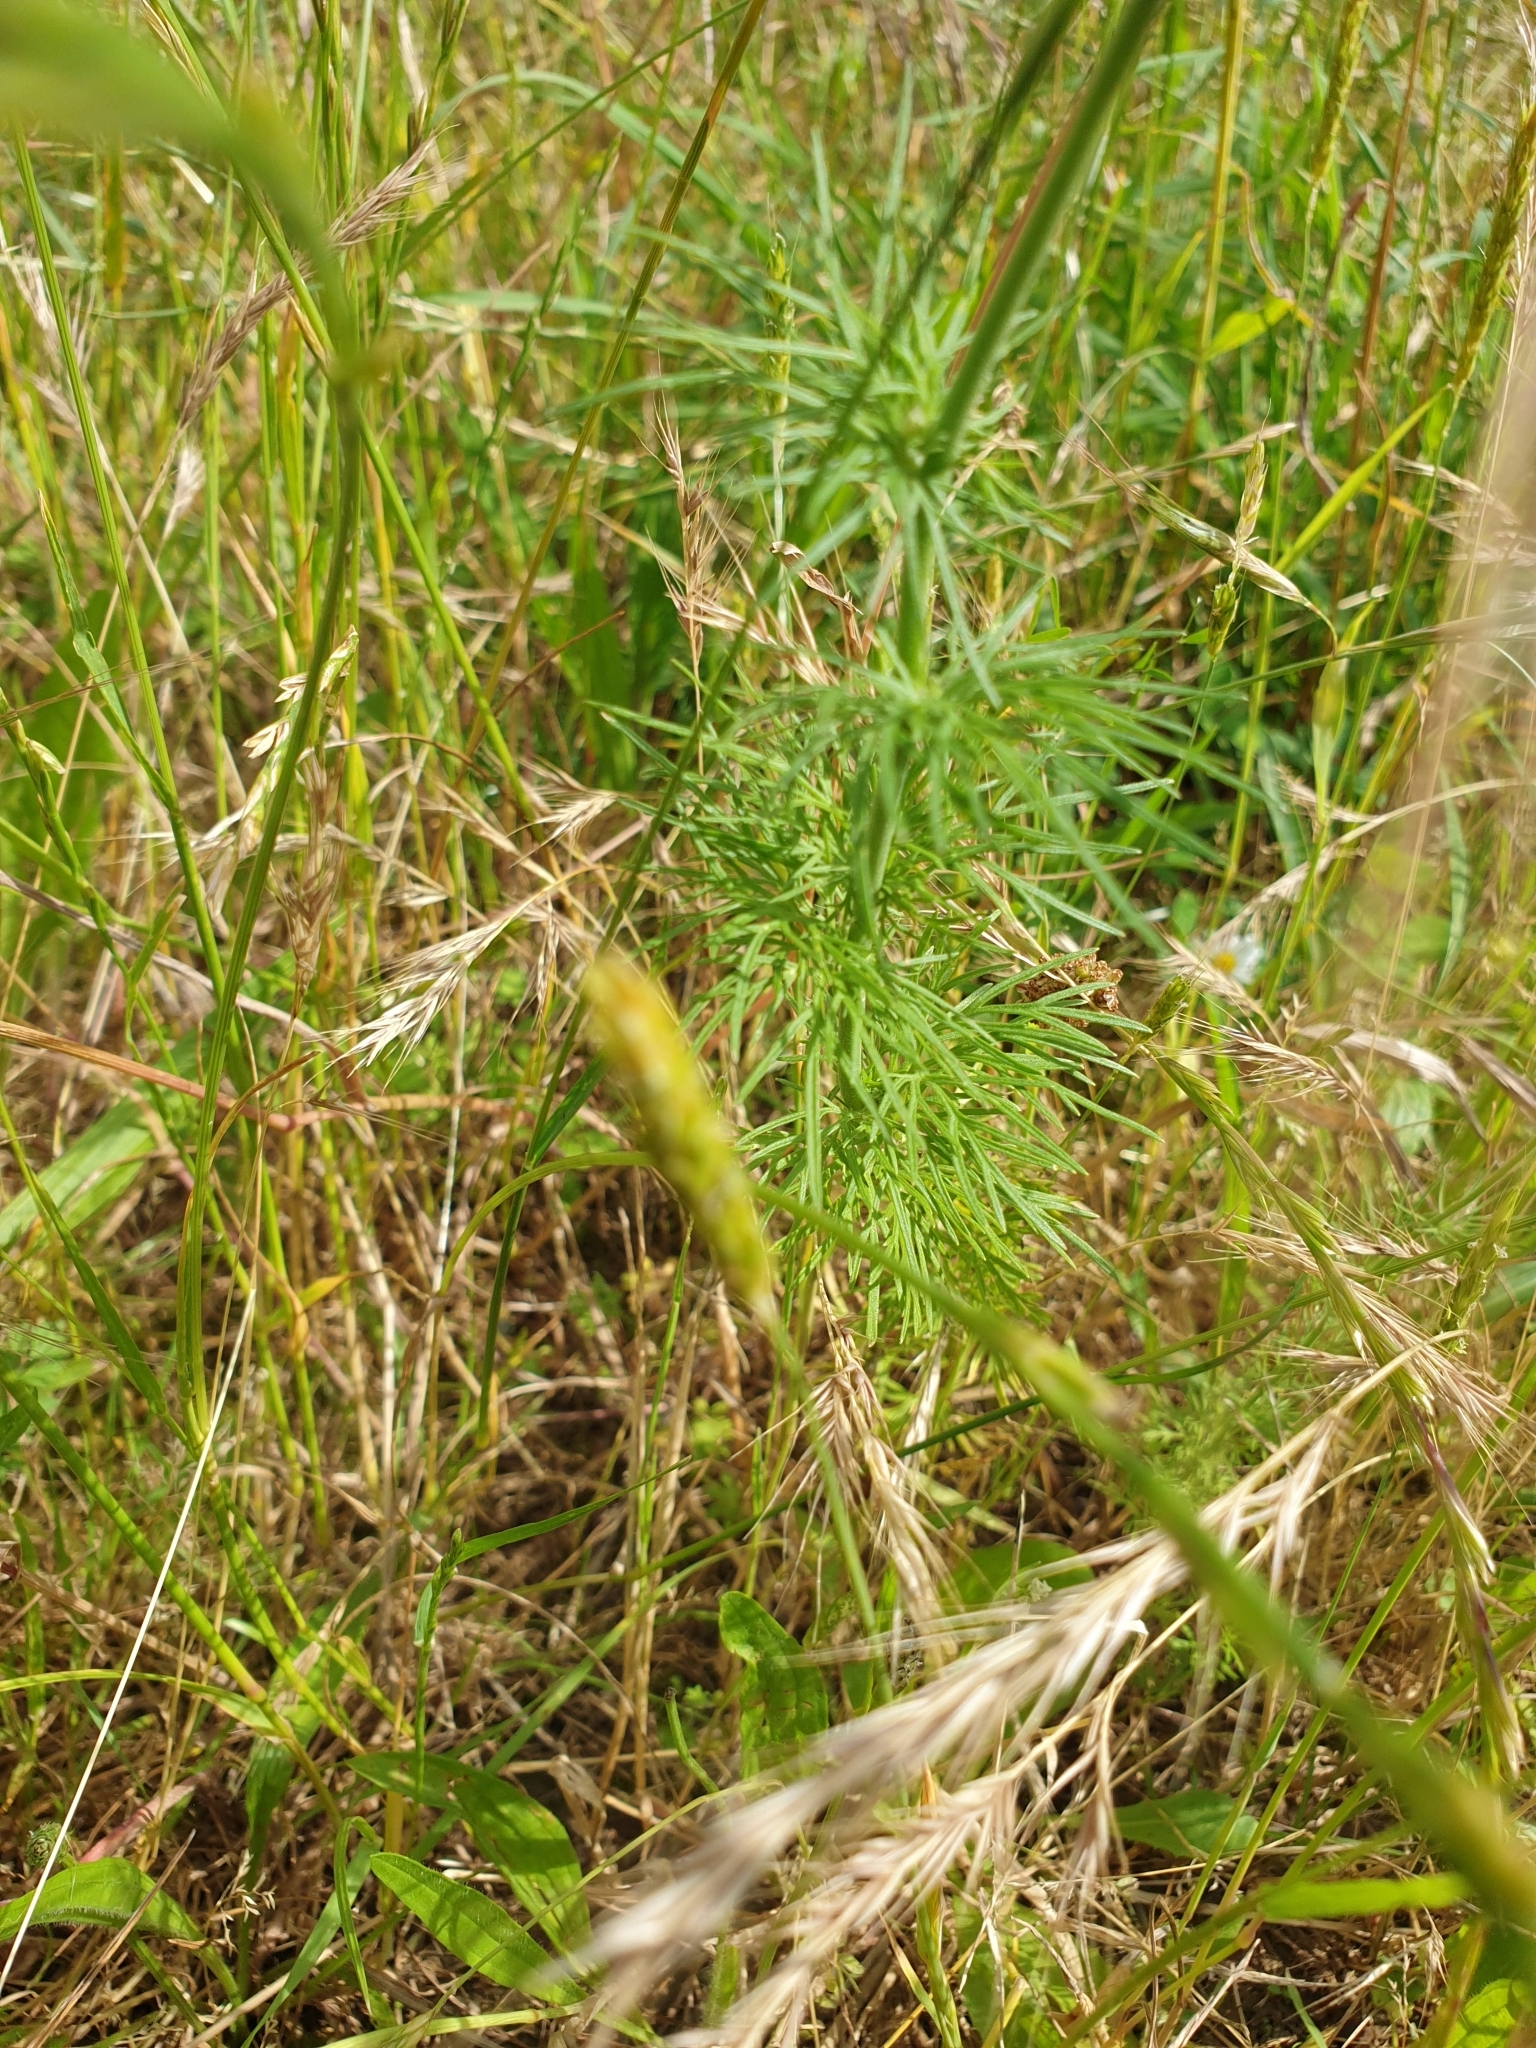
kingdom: Plantae
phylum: Tracheophyta
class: Magnoliopsida
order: Ranunculales
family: Ranunculaceae
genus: Delphinium
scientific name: Delphinium ajacis
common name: Doubtful knight's-spur
